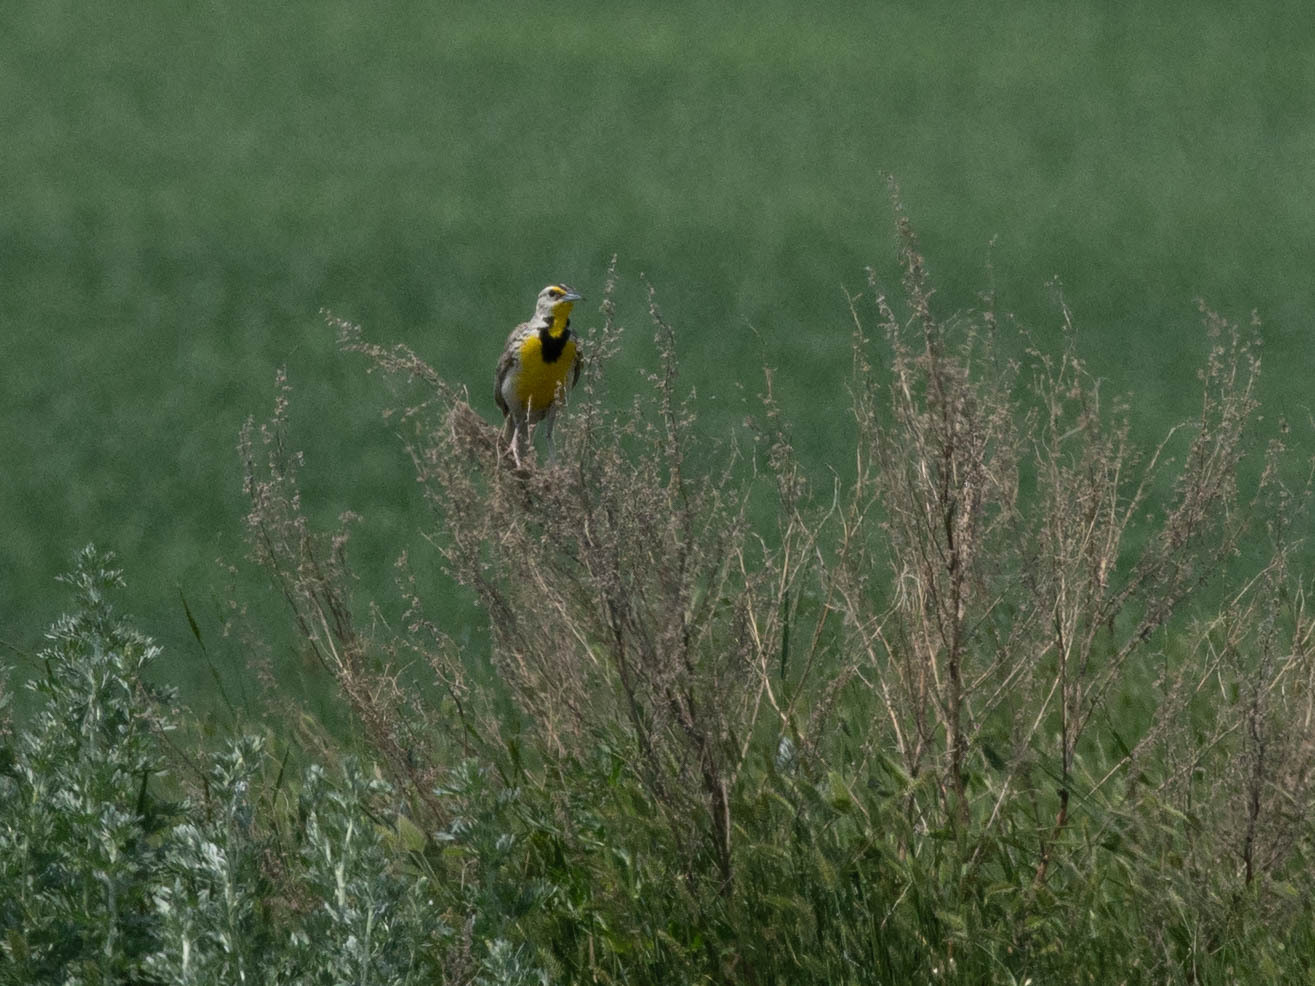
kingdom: Animalia
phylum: Chordata
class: Aves
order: Passeriformes
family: Icteridae
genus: Sturnella
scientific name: Sturnella neglecta
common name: Western meadowlark
